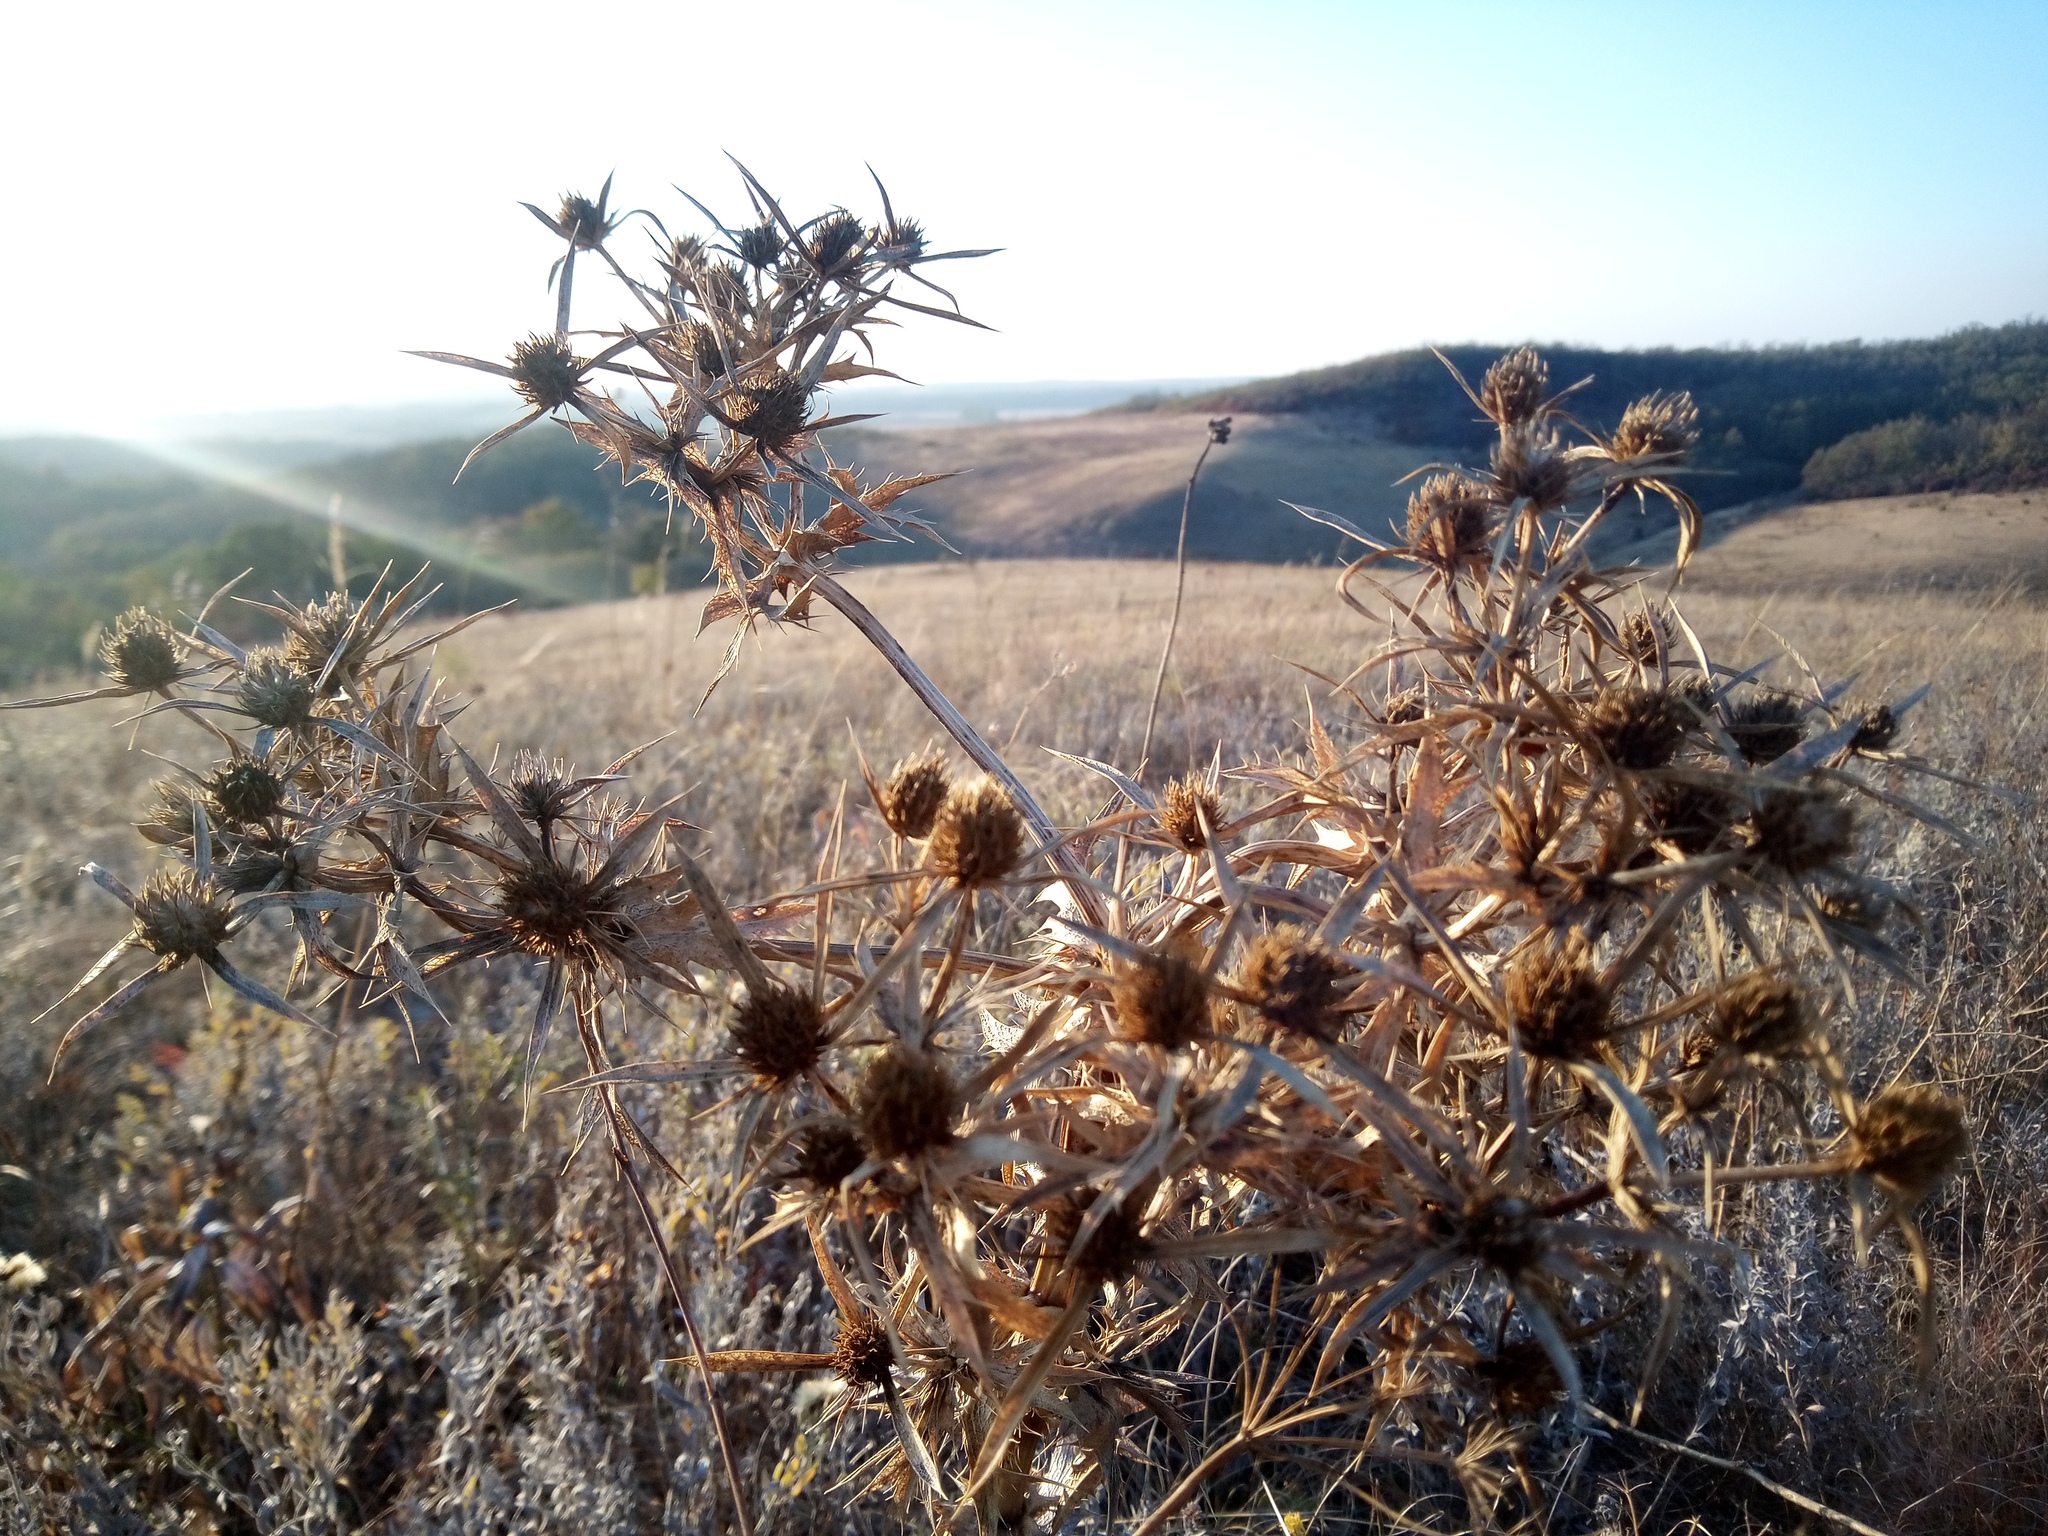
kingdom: Plantae
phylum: Tracheophyta
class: Magnoliopsida
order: Apiales
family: Apiaceae
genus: Eryngium
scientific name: Eryngium campestre
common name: Field eryngo
